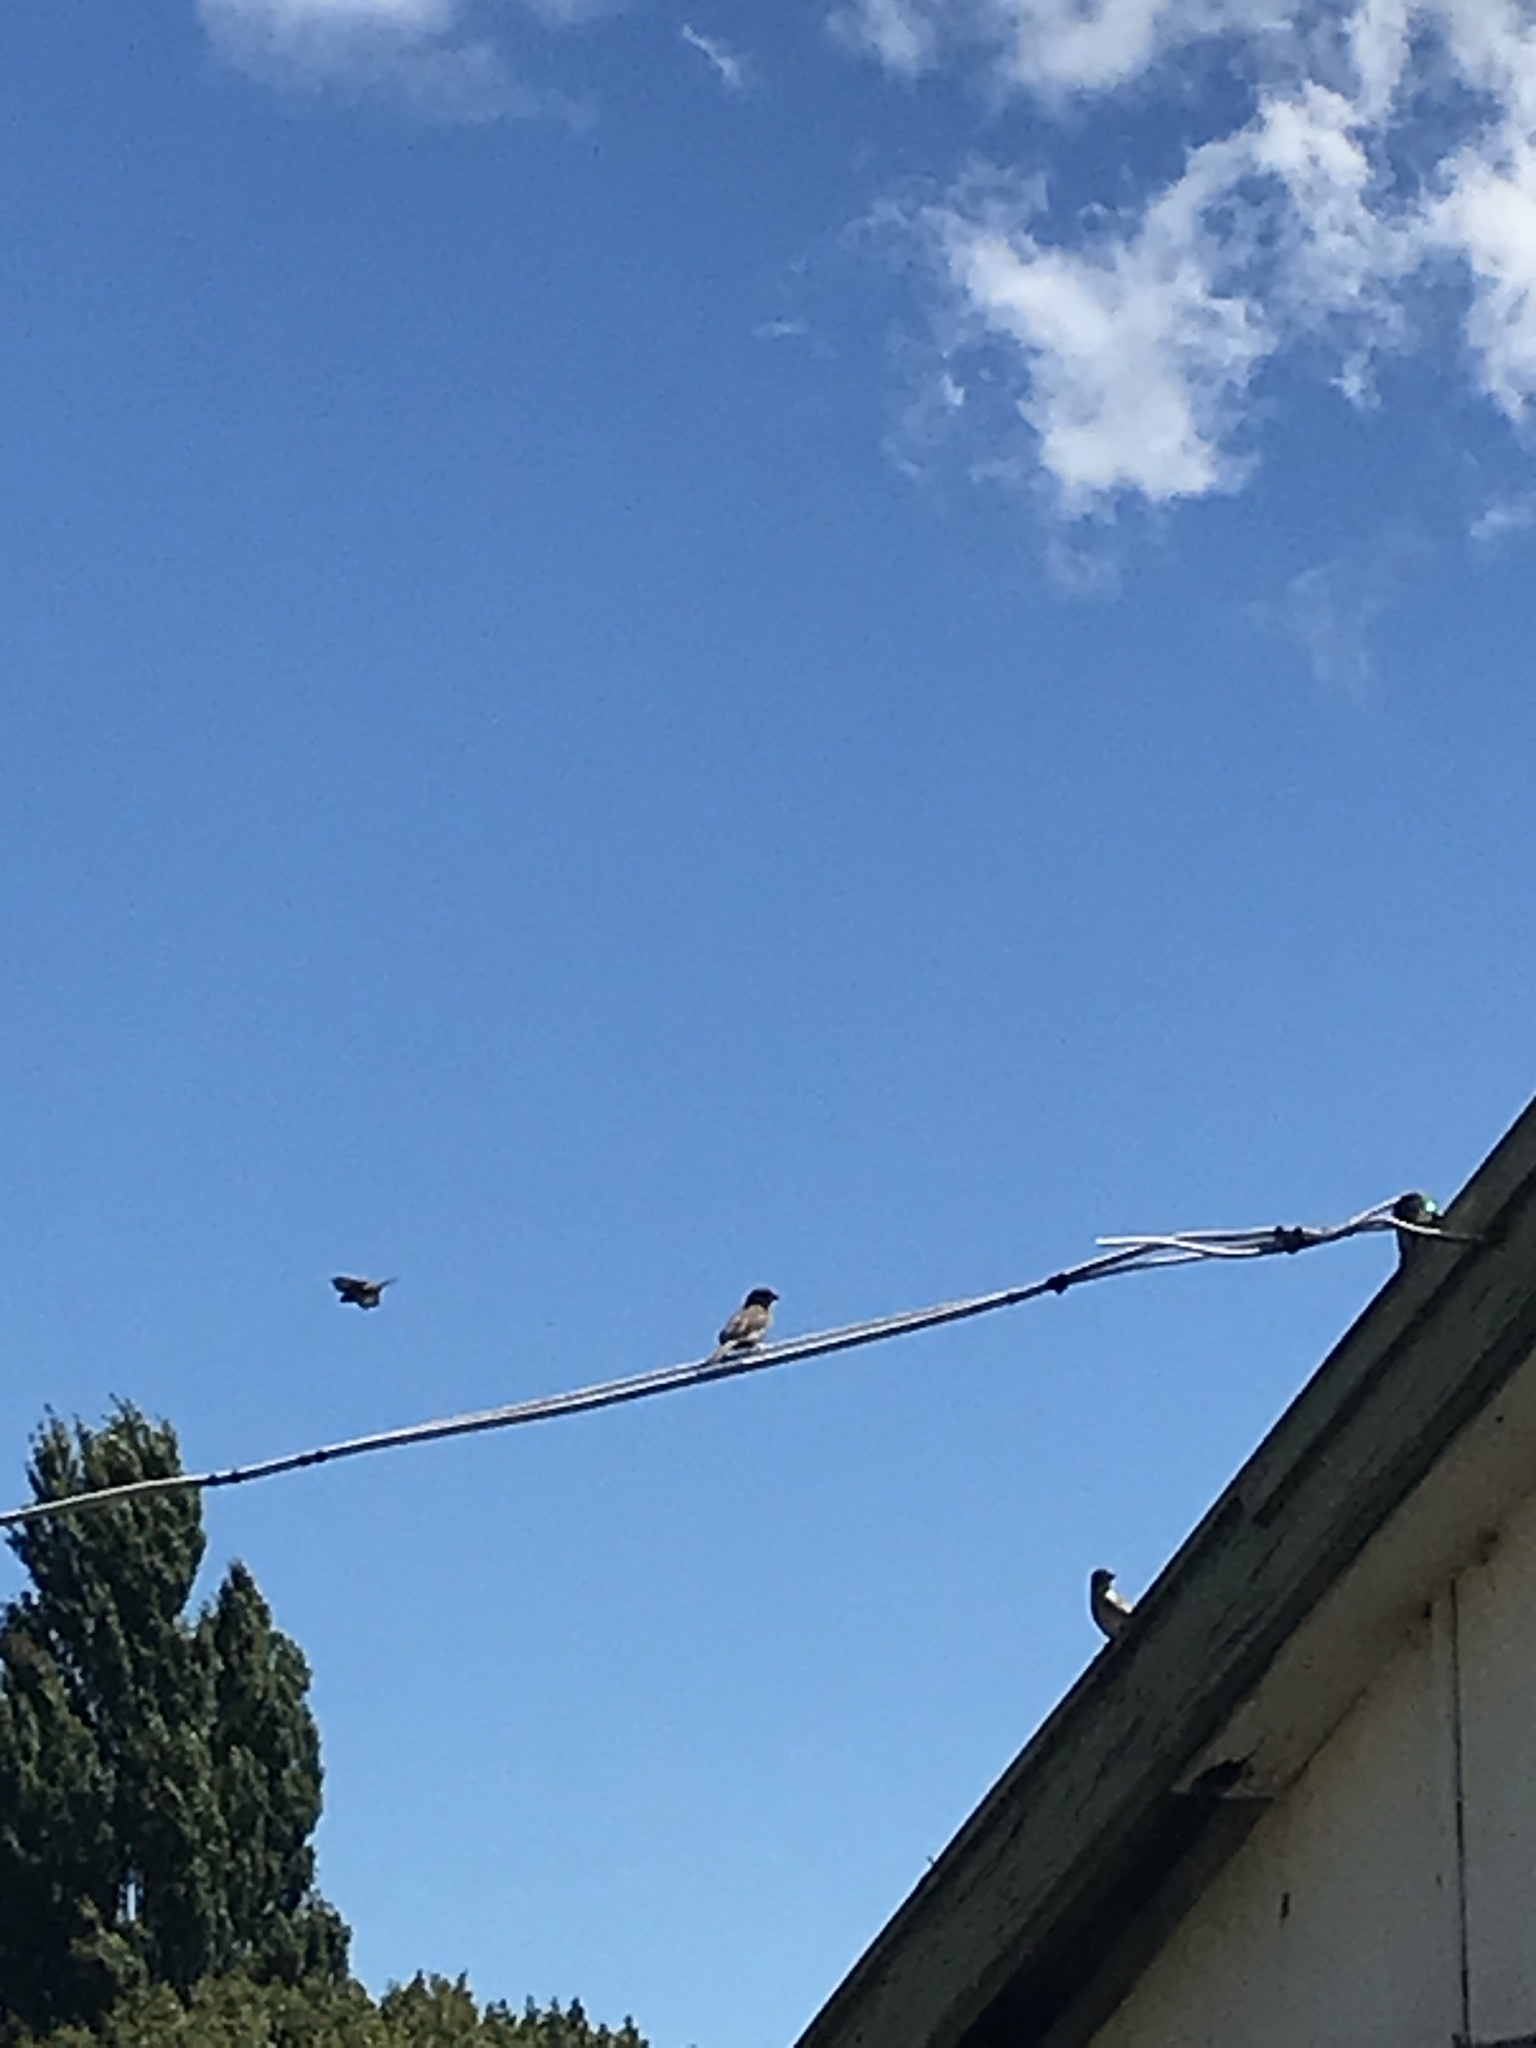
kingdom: Animalia
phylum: Chordata
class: Aves
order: Passeriformes
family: Passeridae
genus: Passer
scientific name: Passer domesticus
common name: House sparrow
